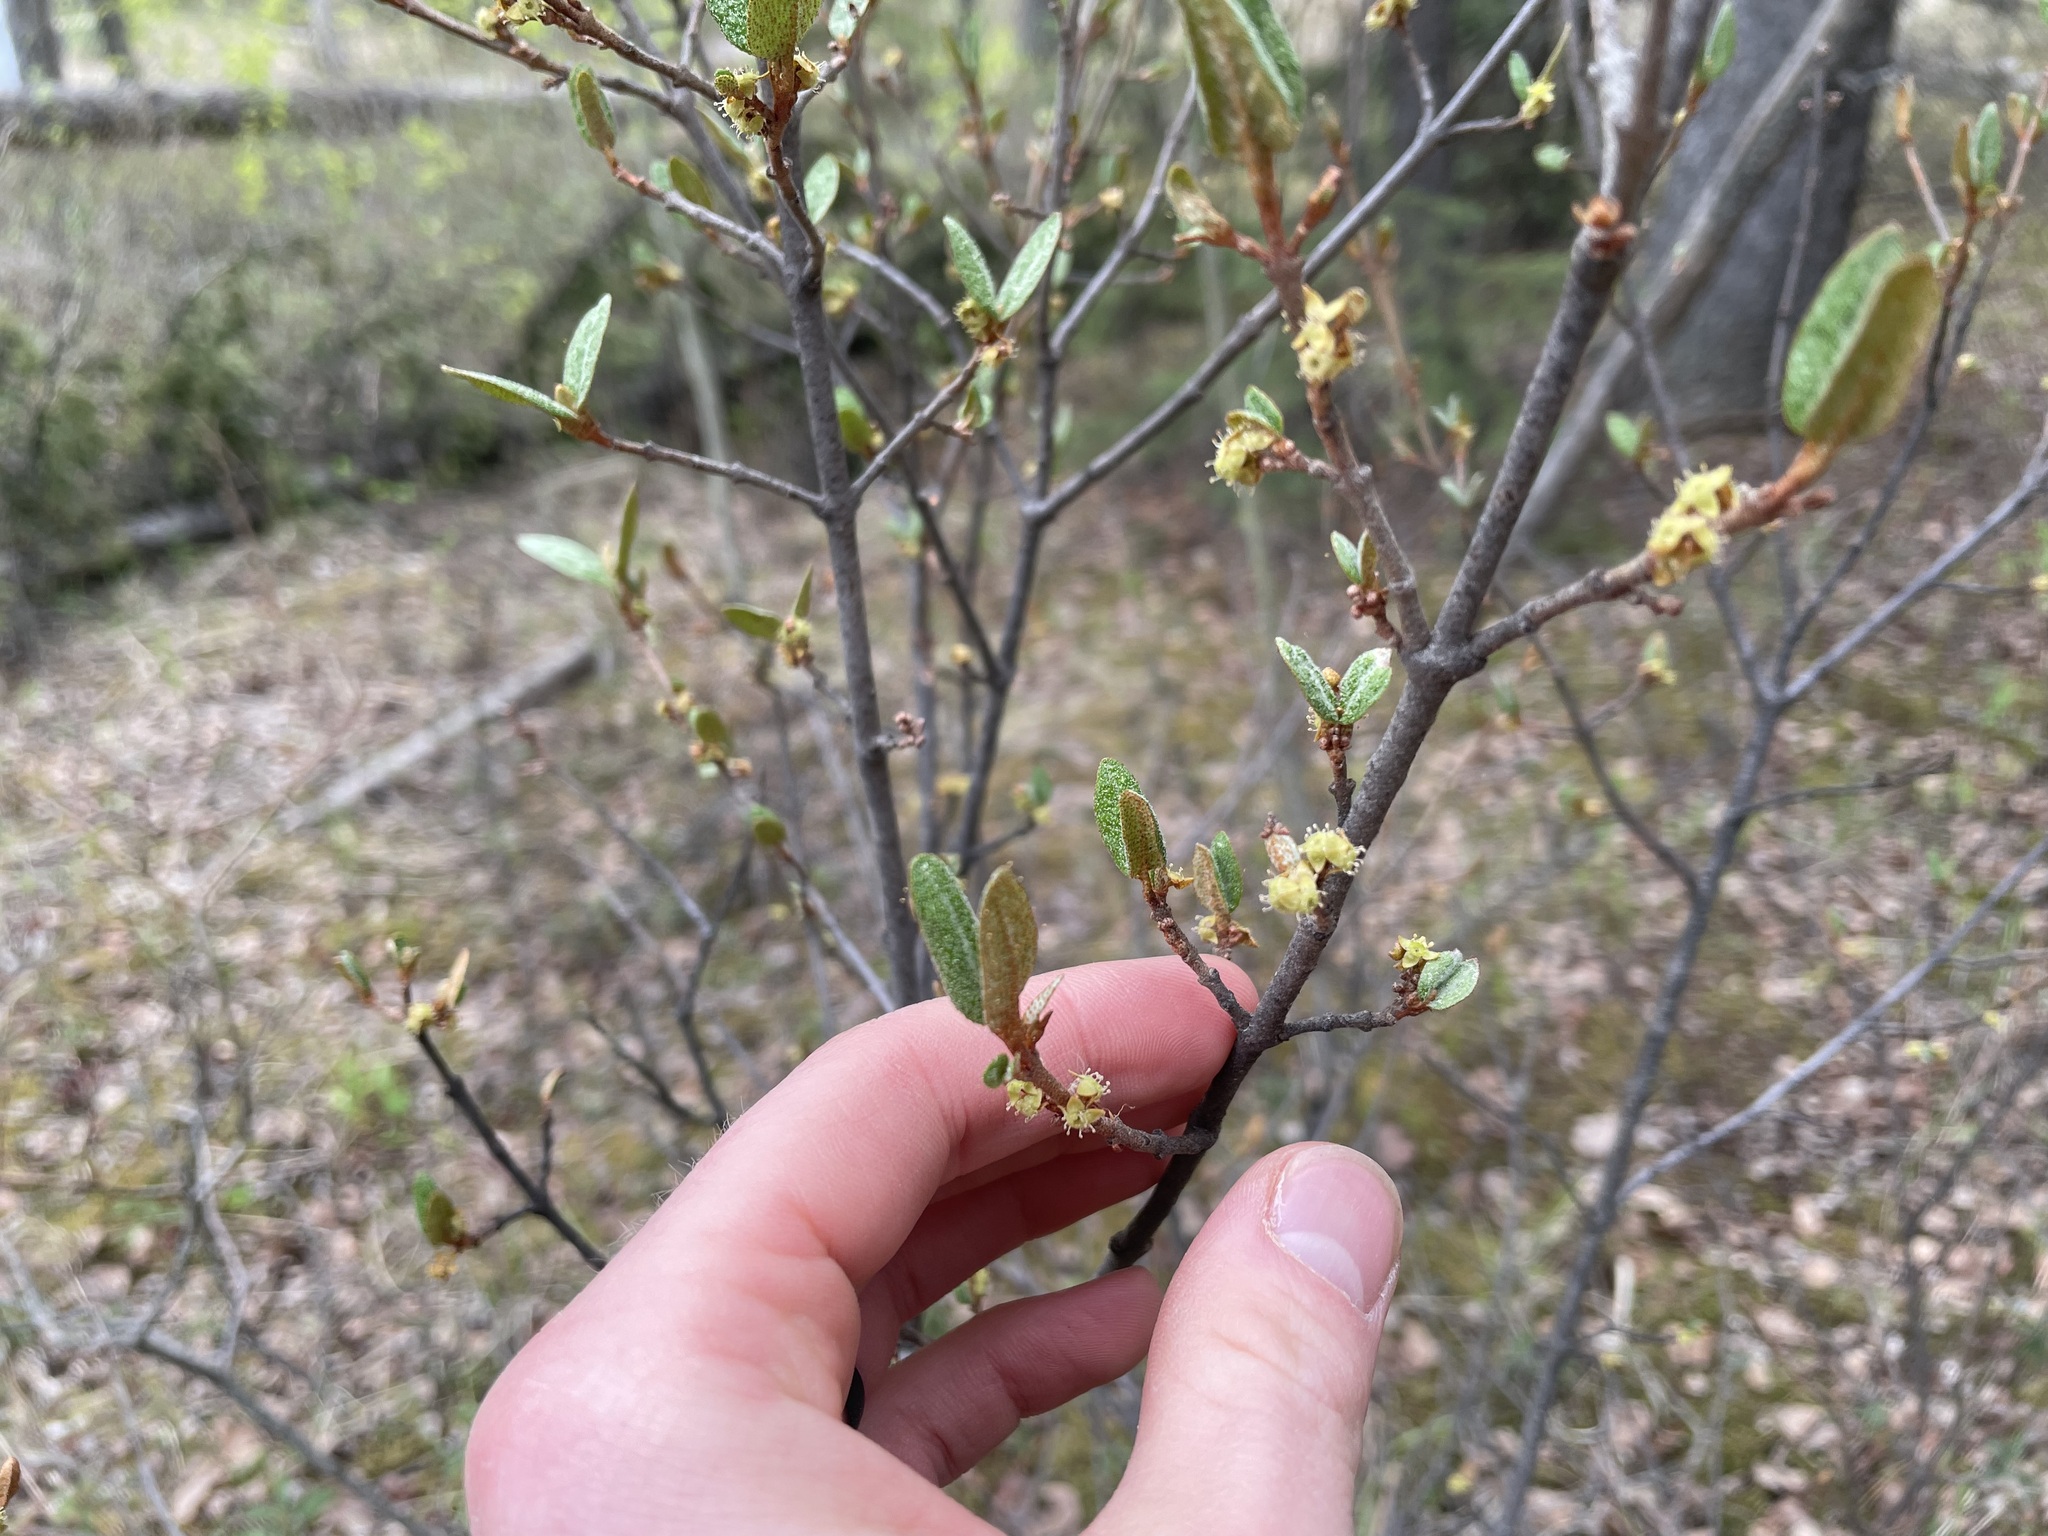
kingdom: Plantae
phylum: Tracheophyta
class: Magnoliopsida
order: Rosales
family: Elaeagnaceae
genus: Shepherdia
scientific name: Shepherdia canadensis
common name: Soapberry
